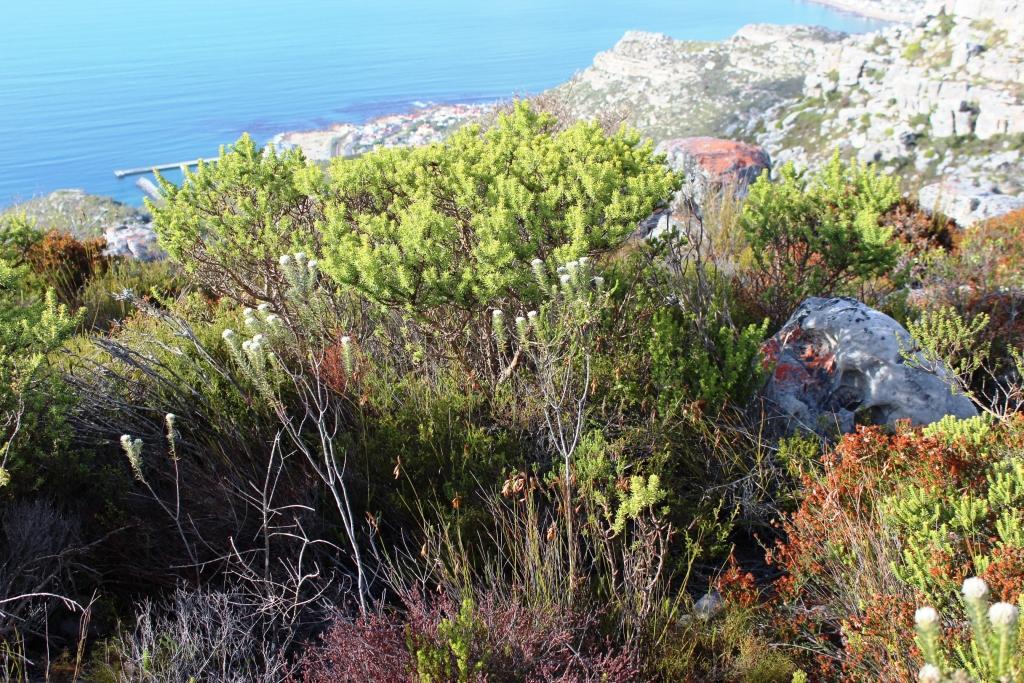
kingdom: Plantae
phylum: Tracheophyta
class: Magnoliopsida
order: Rosales
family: Rhamnaceae
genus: Phylica
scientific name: Phylica strigosa
